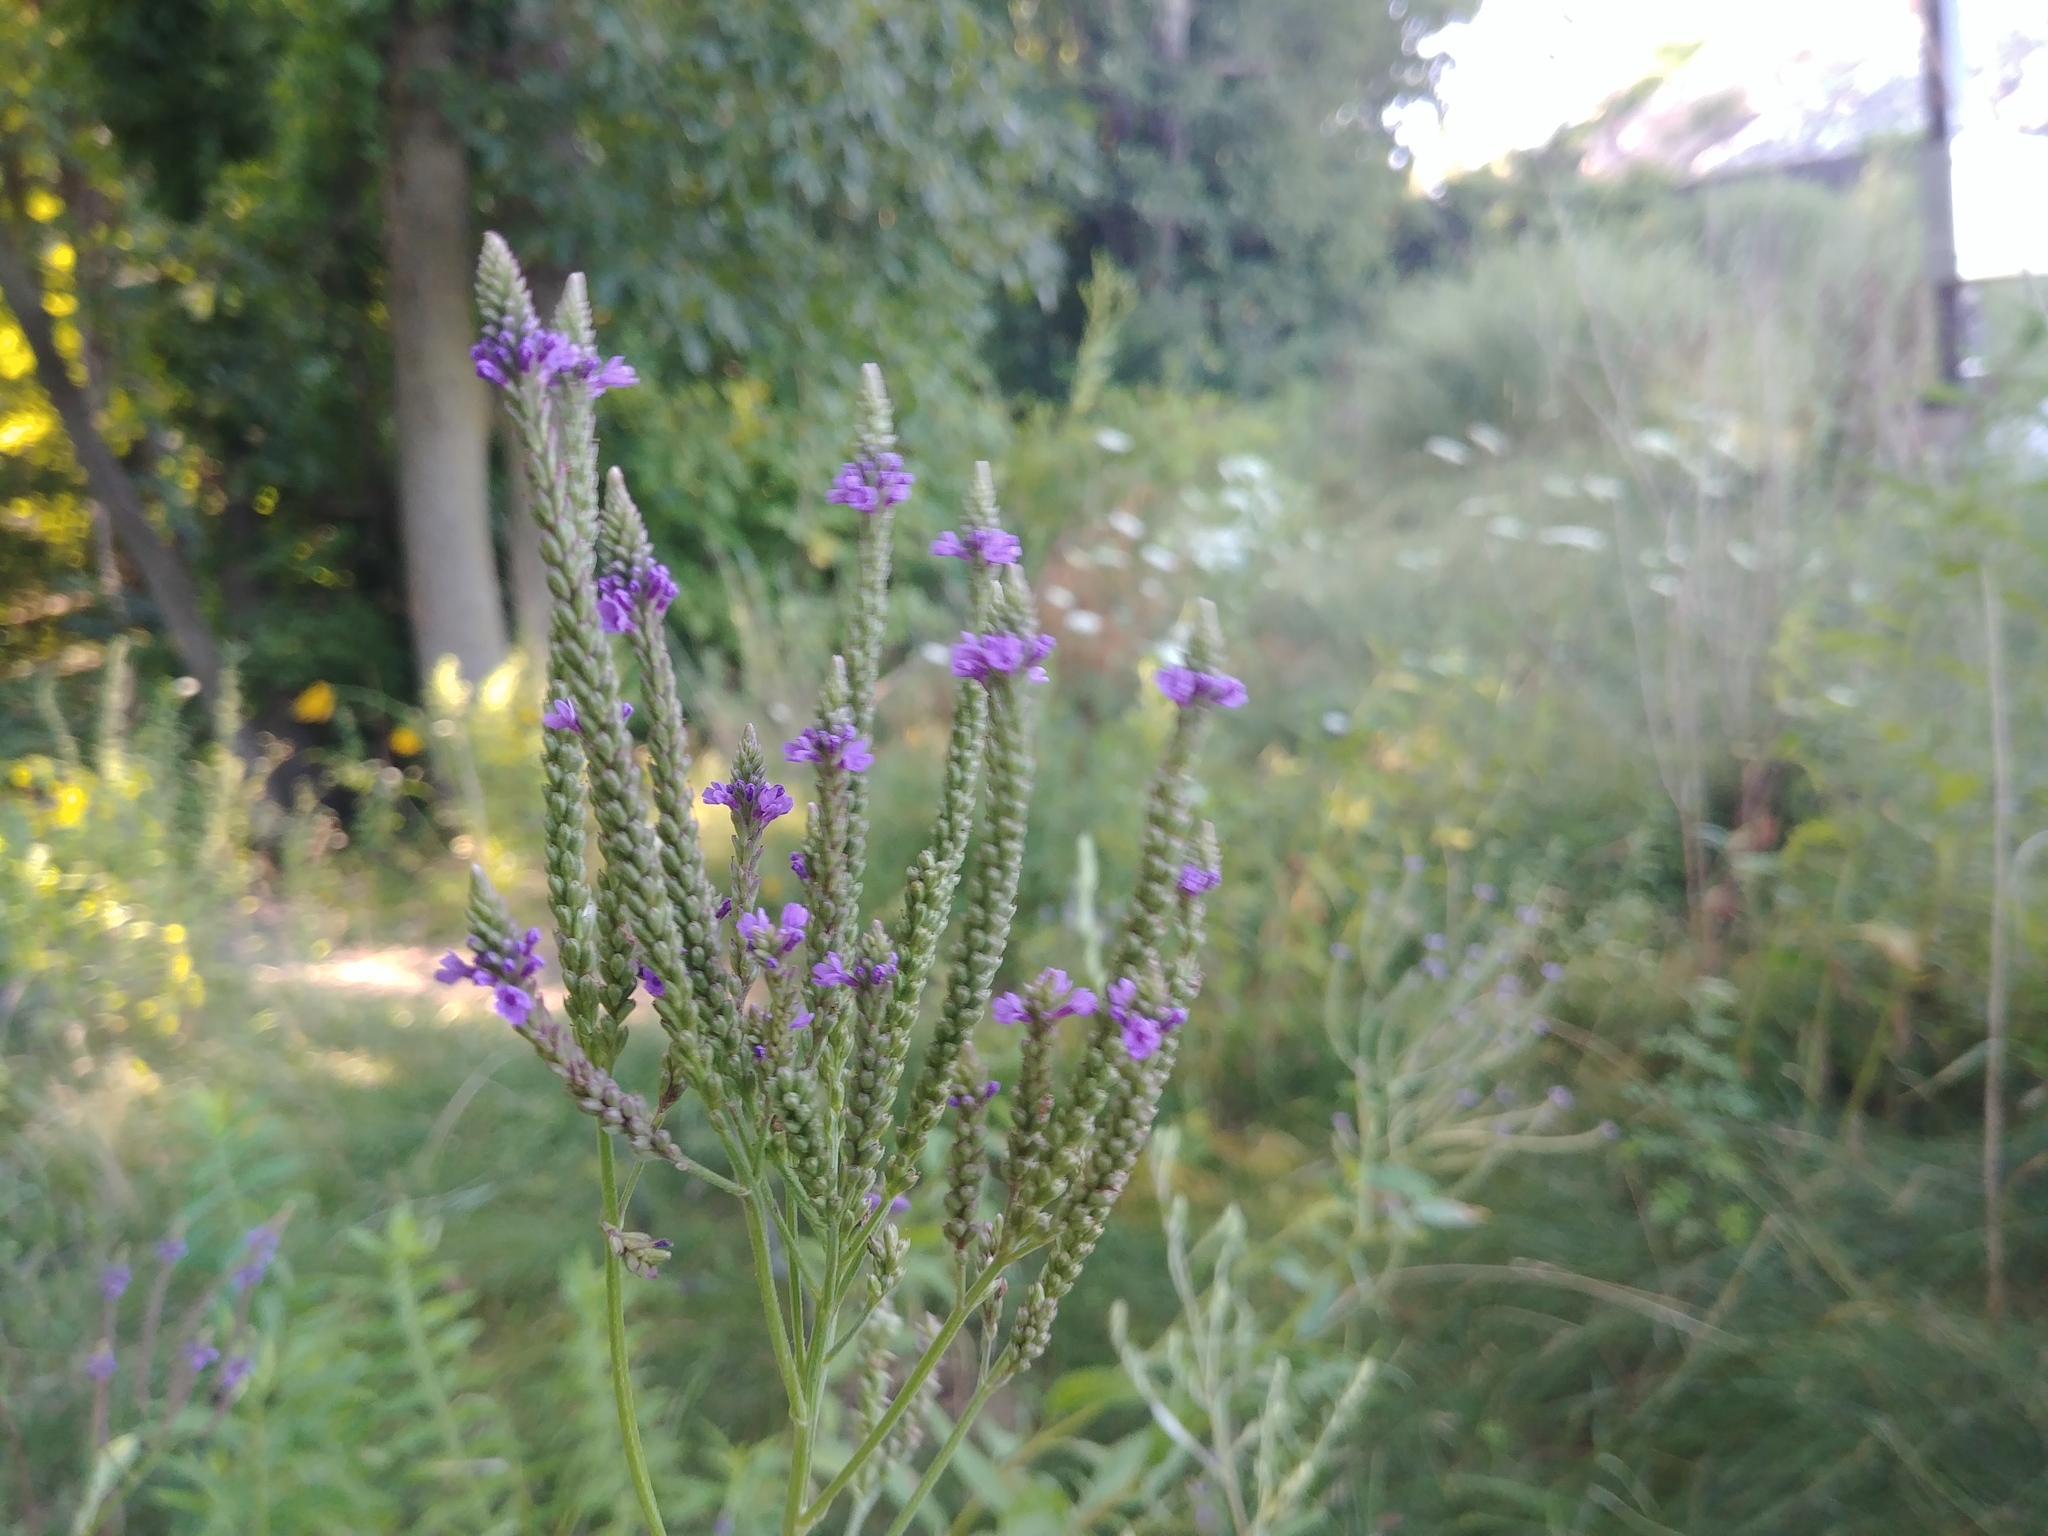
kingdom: Plantae
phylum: Tracheophyta
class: Magnoliopsida
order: Lamiales
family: Verbenaceae
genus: Verbena
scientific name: Verbena hastata
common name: American blue vervain
